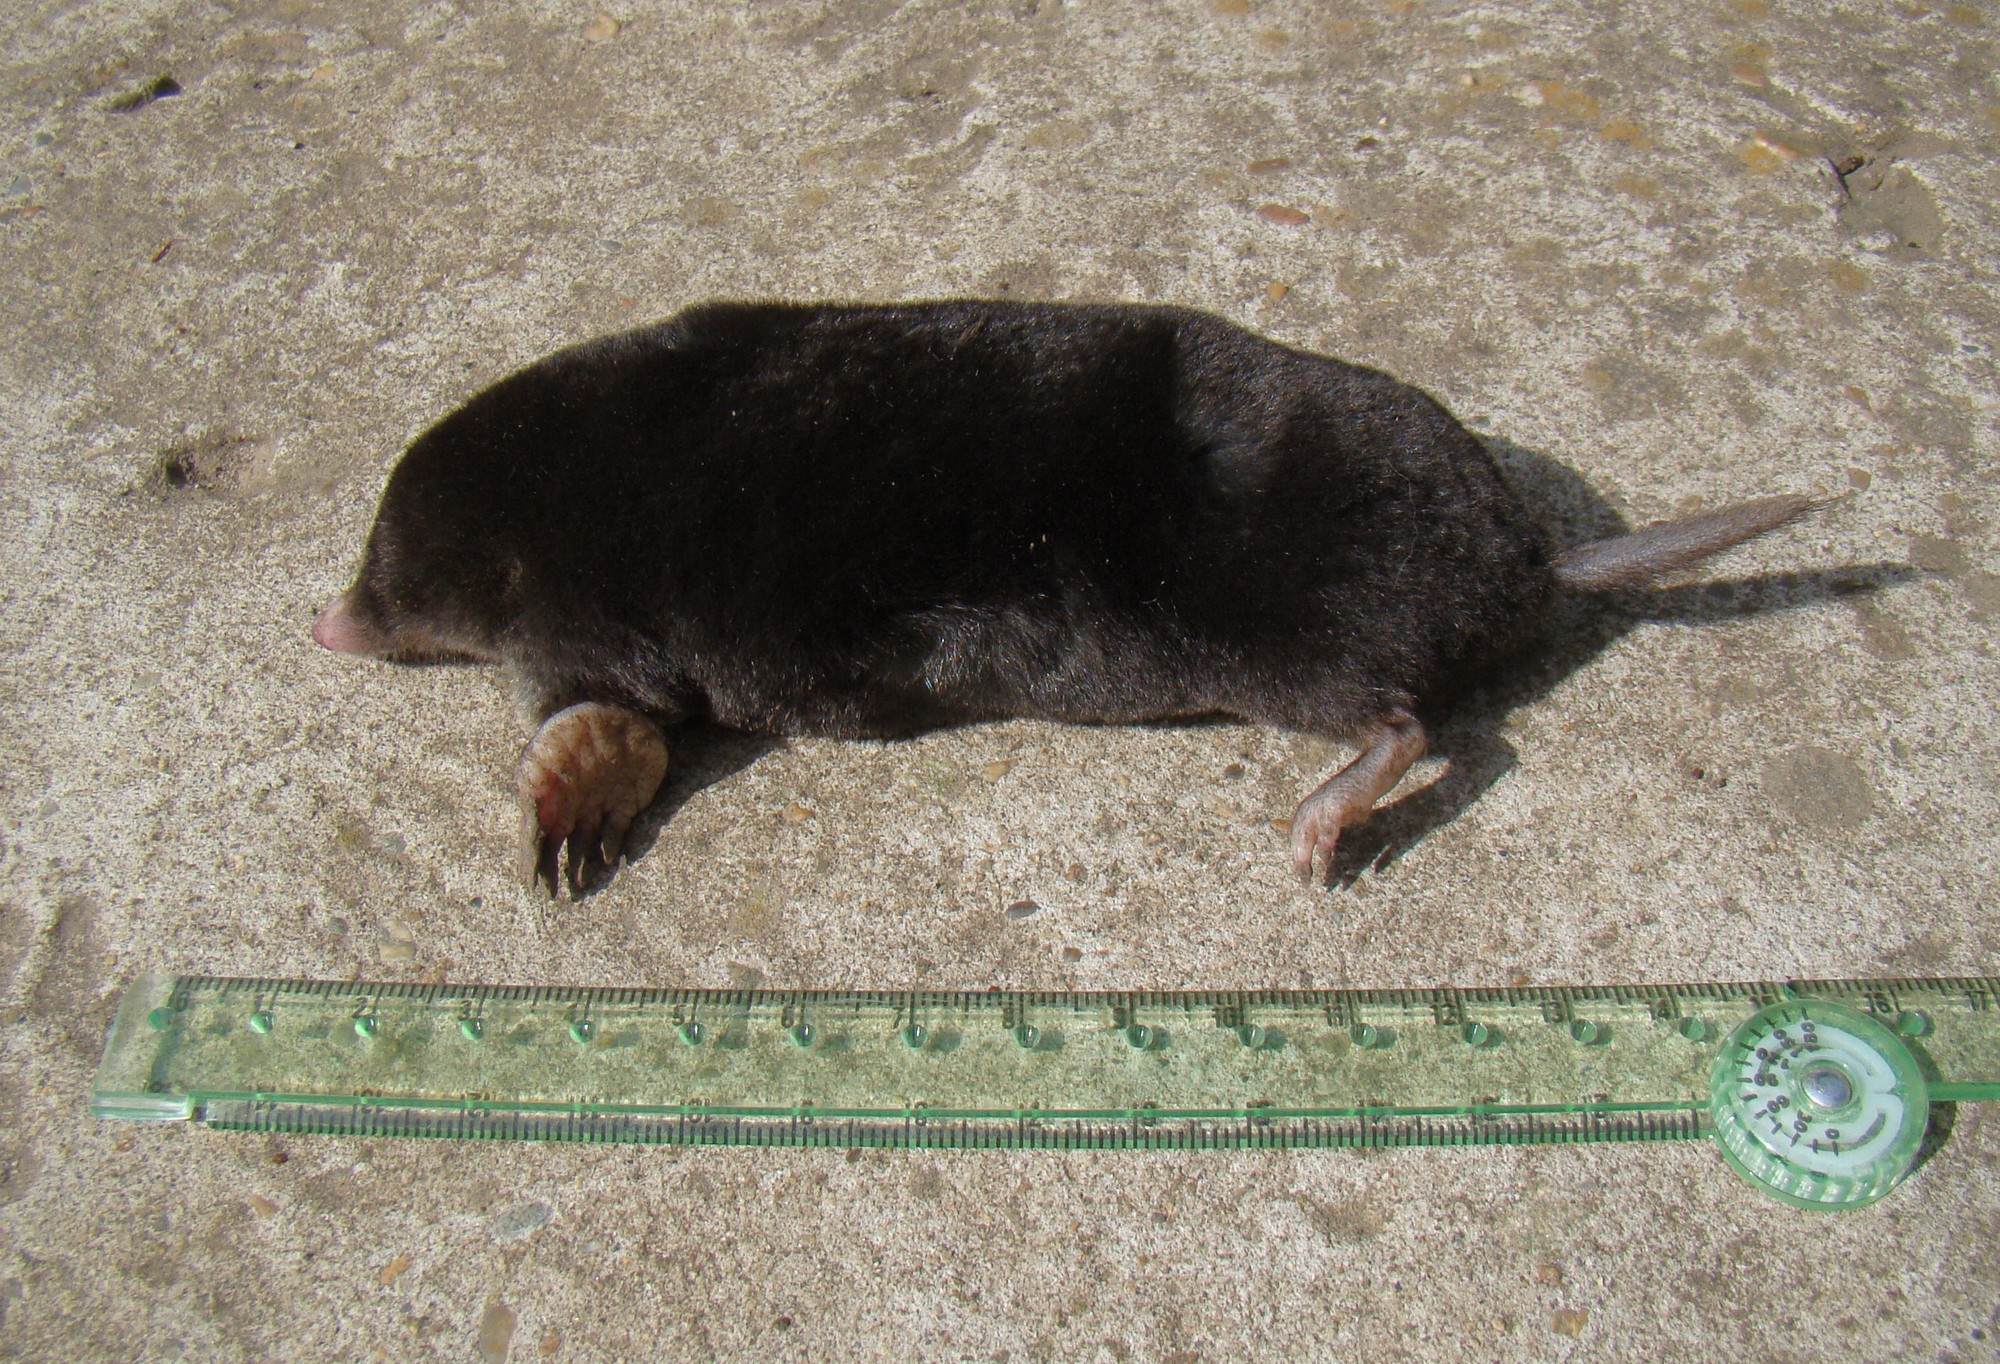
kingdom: Animalia
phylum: Chordata
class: Mammalia
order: Soricomorpha
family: Talpidae
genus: Talpa
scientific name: Talpa caucasica
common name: Caucasian mole
